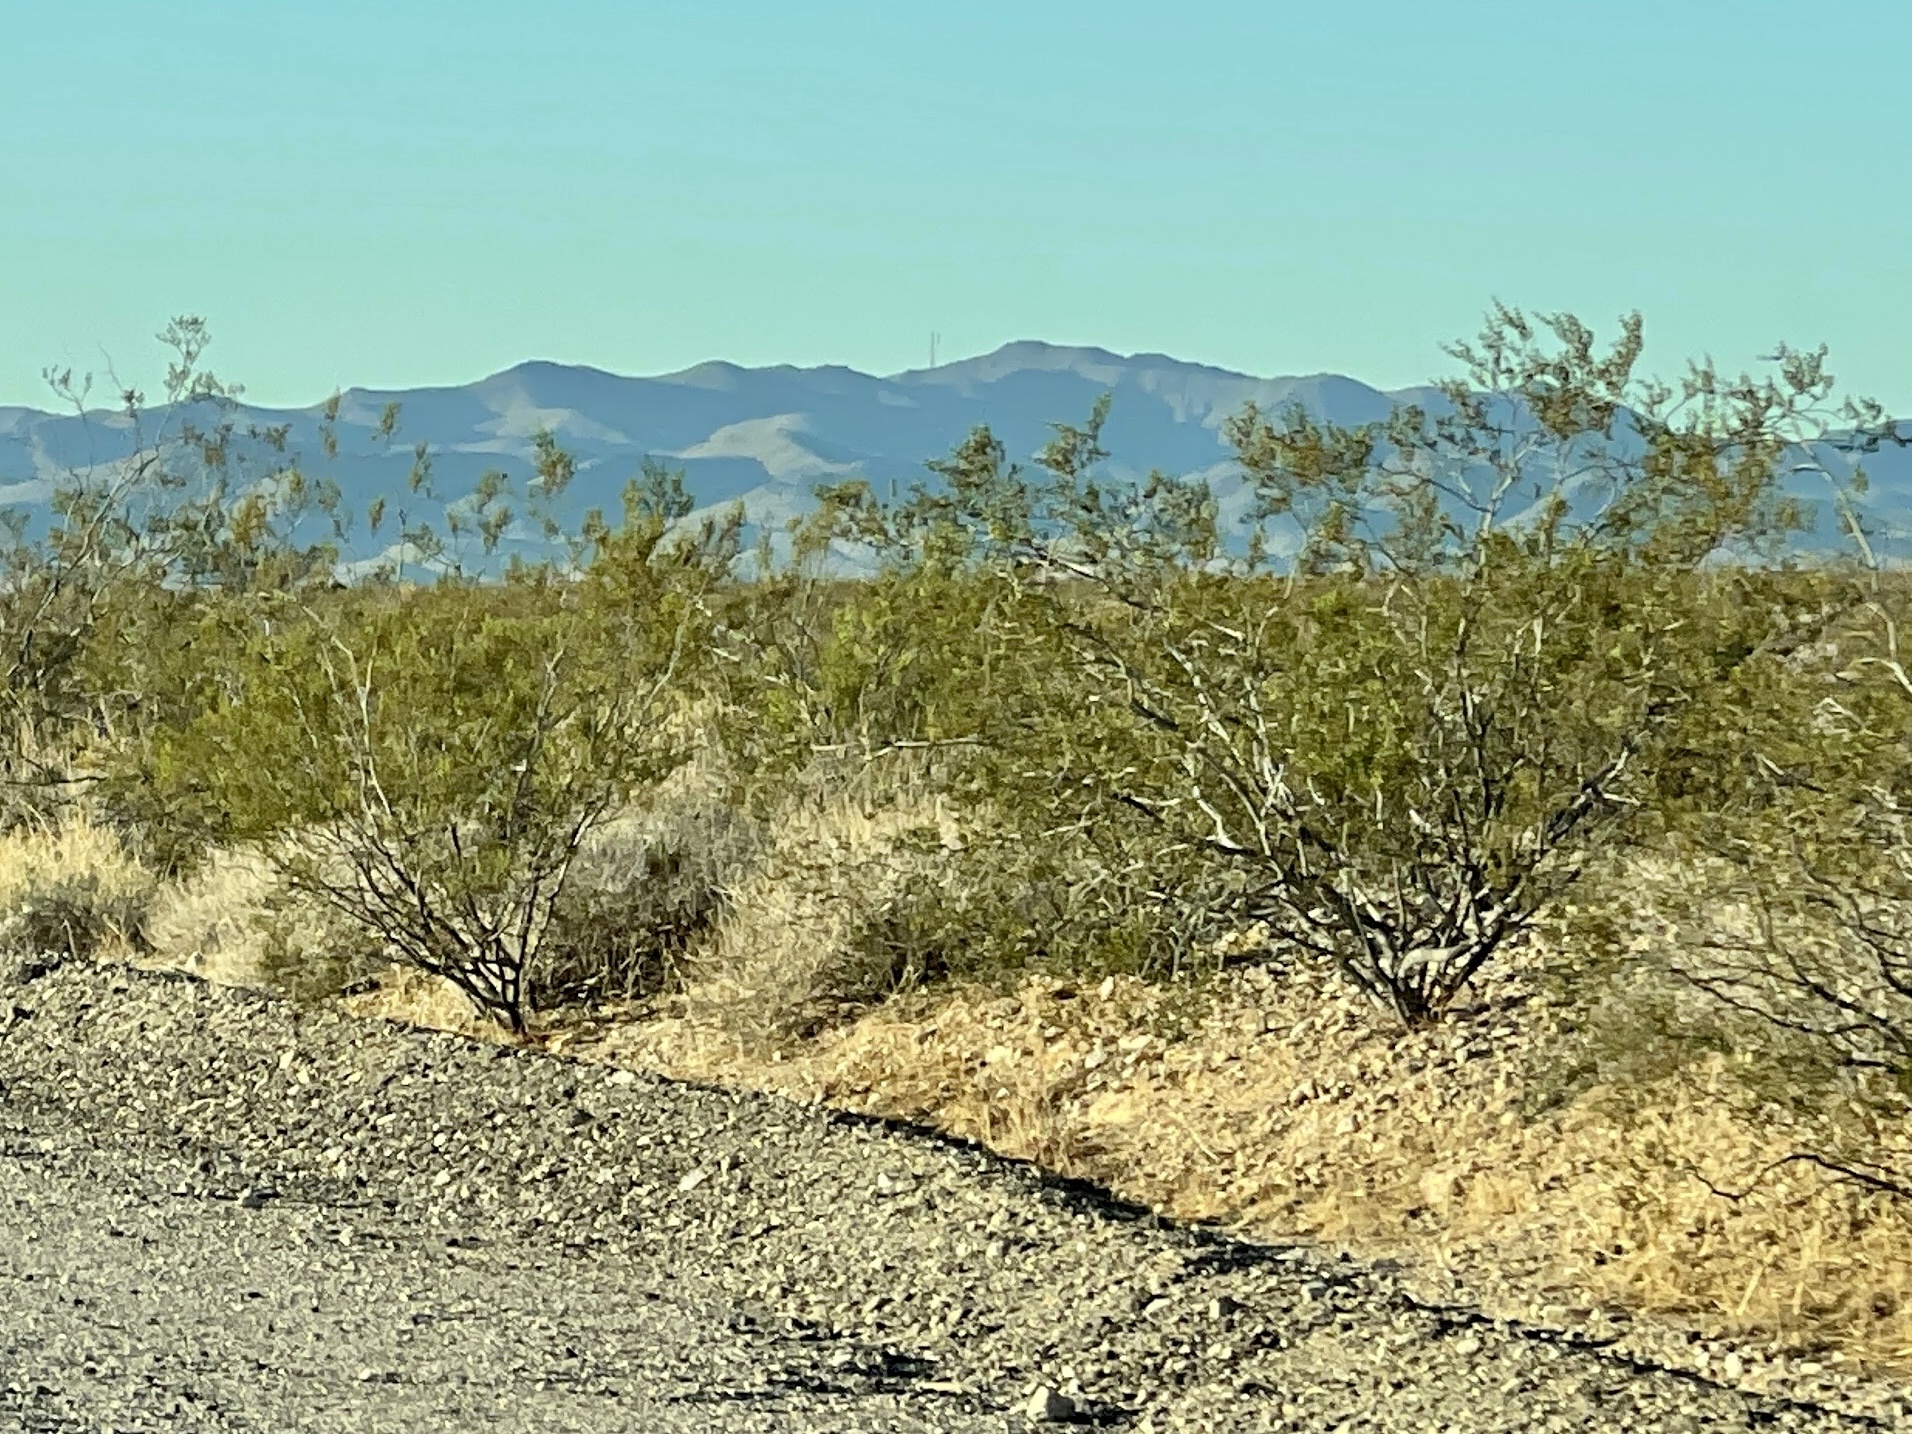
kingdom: Plantae
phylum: Tracheophyta
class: Magnoliopsida
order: Zygophyllales
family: Zygophyllaceae
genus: Larrea
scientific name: Larrea tridentata
